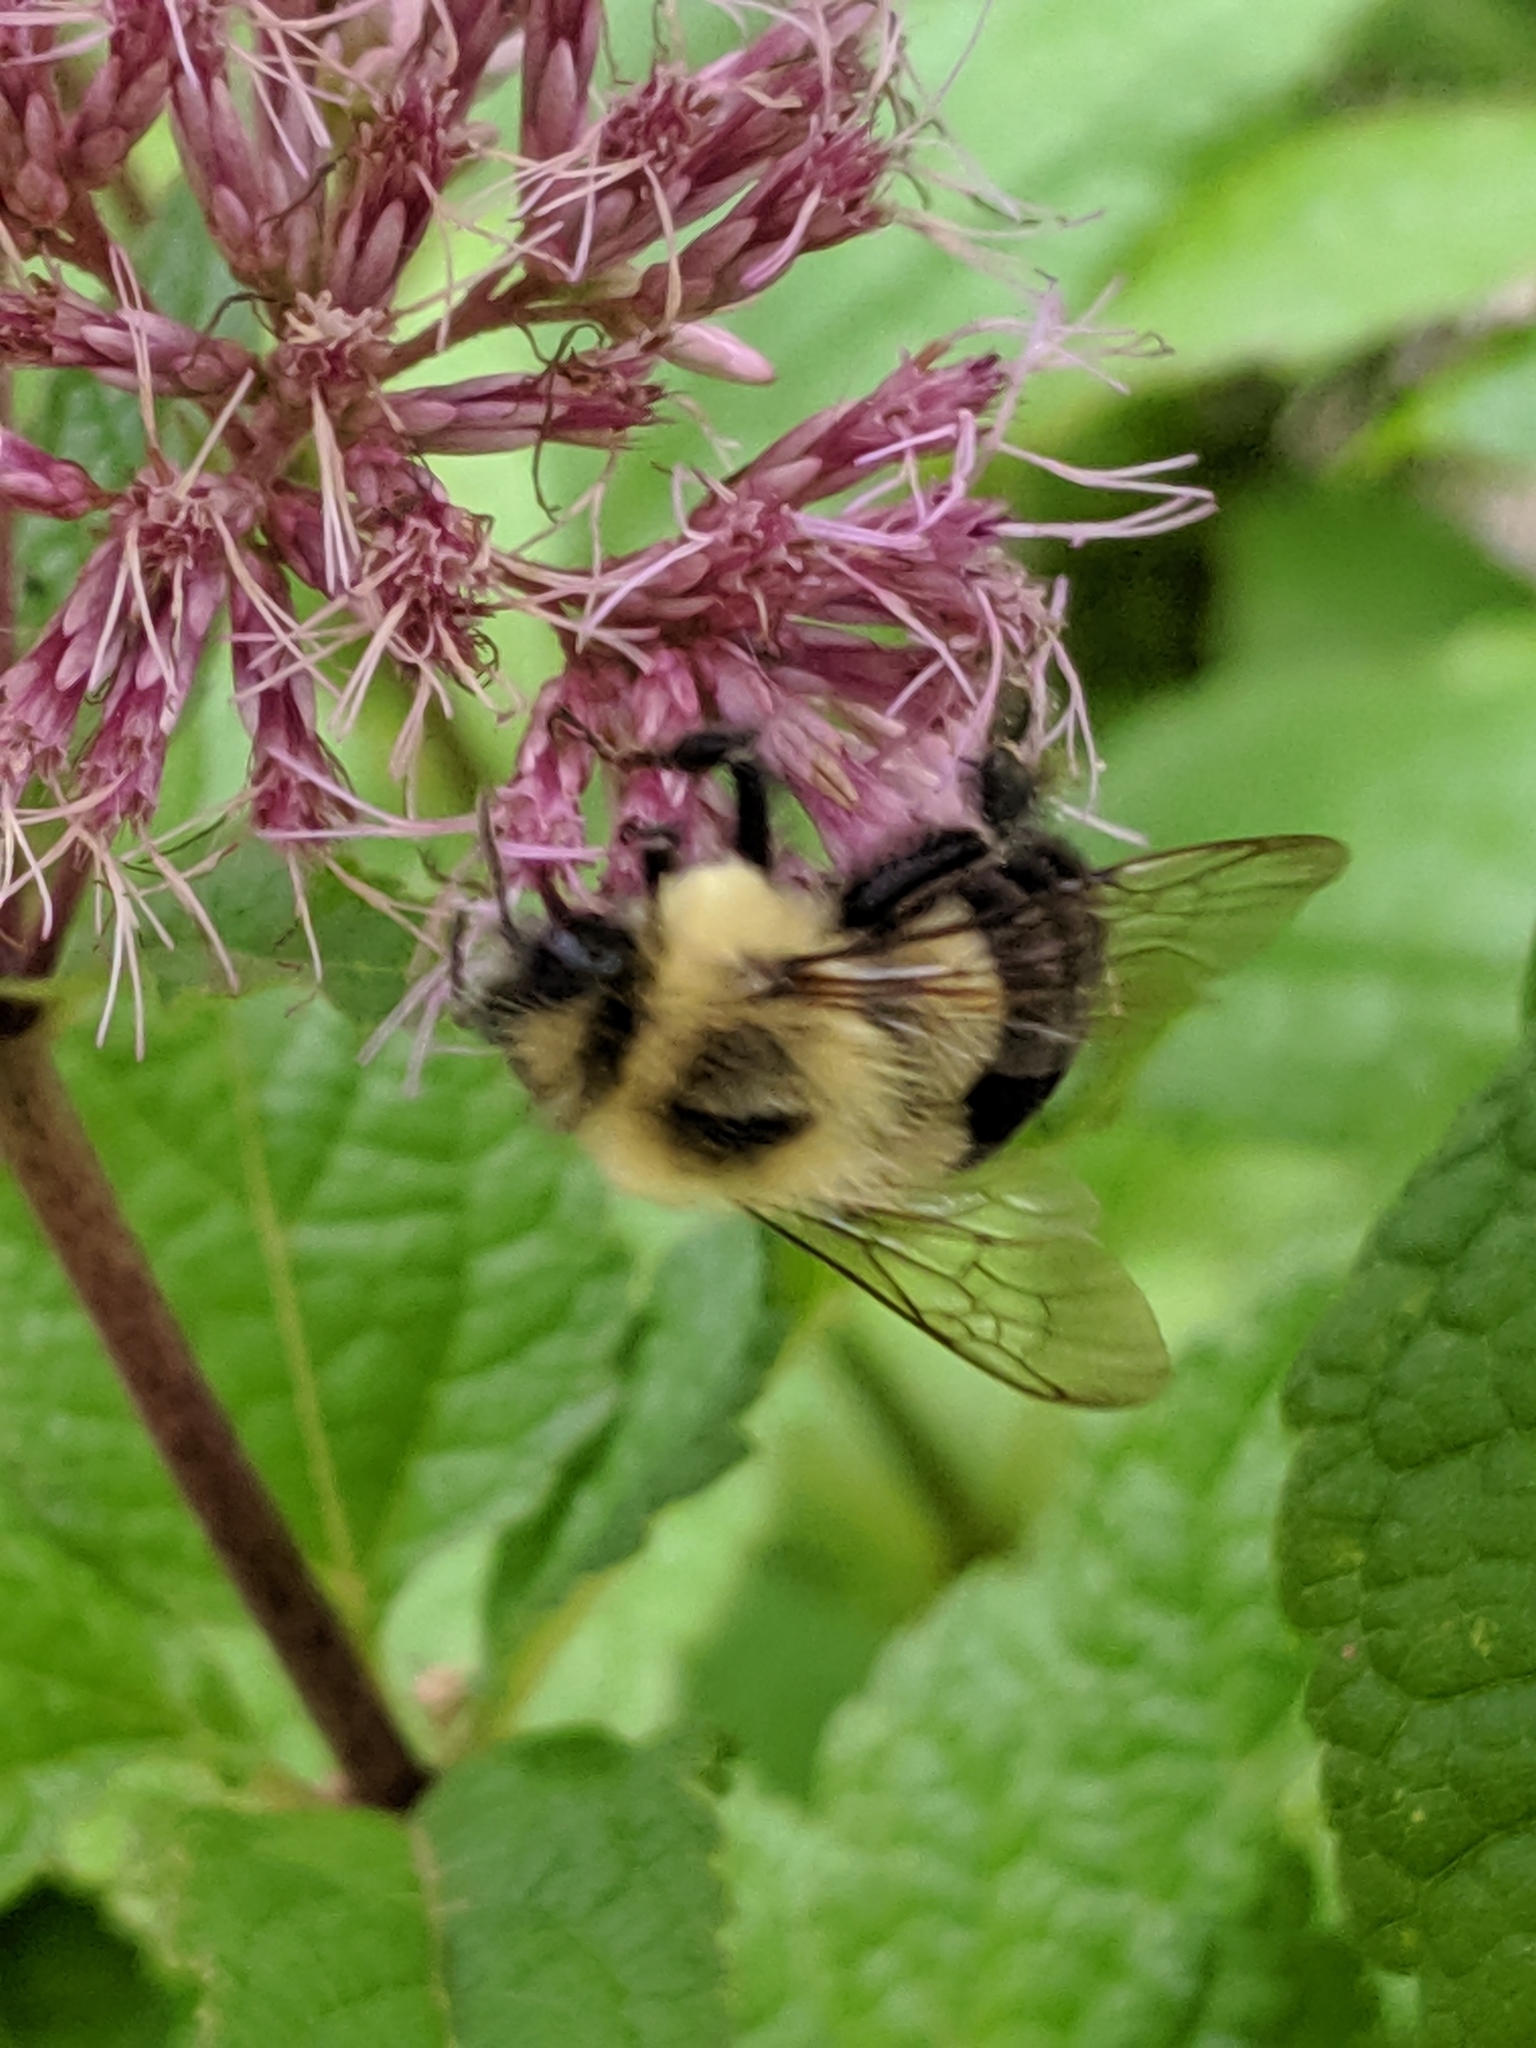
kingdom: Animalia
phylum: Arthropoda
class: Insecta
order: Hymenoptera
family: Apidae
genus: Bombus
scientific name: Bombus impatiens
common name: Common eastern bumble bee
